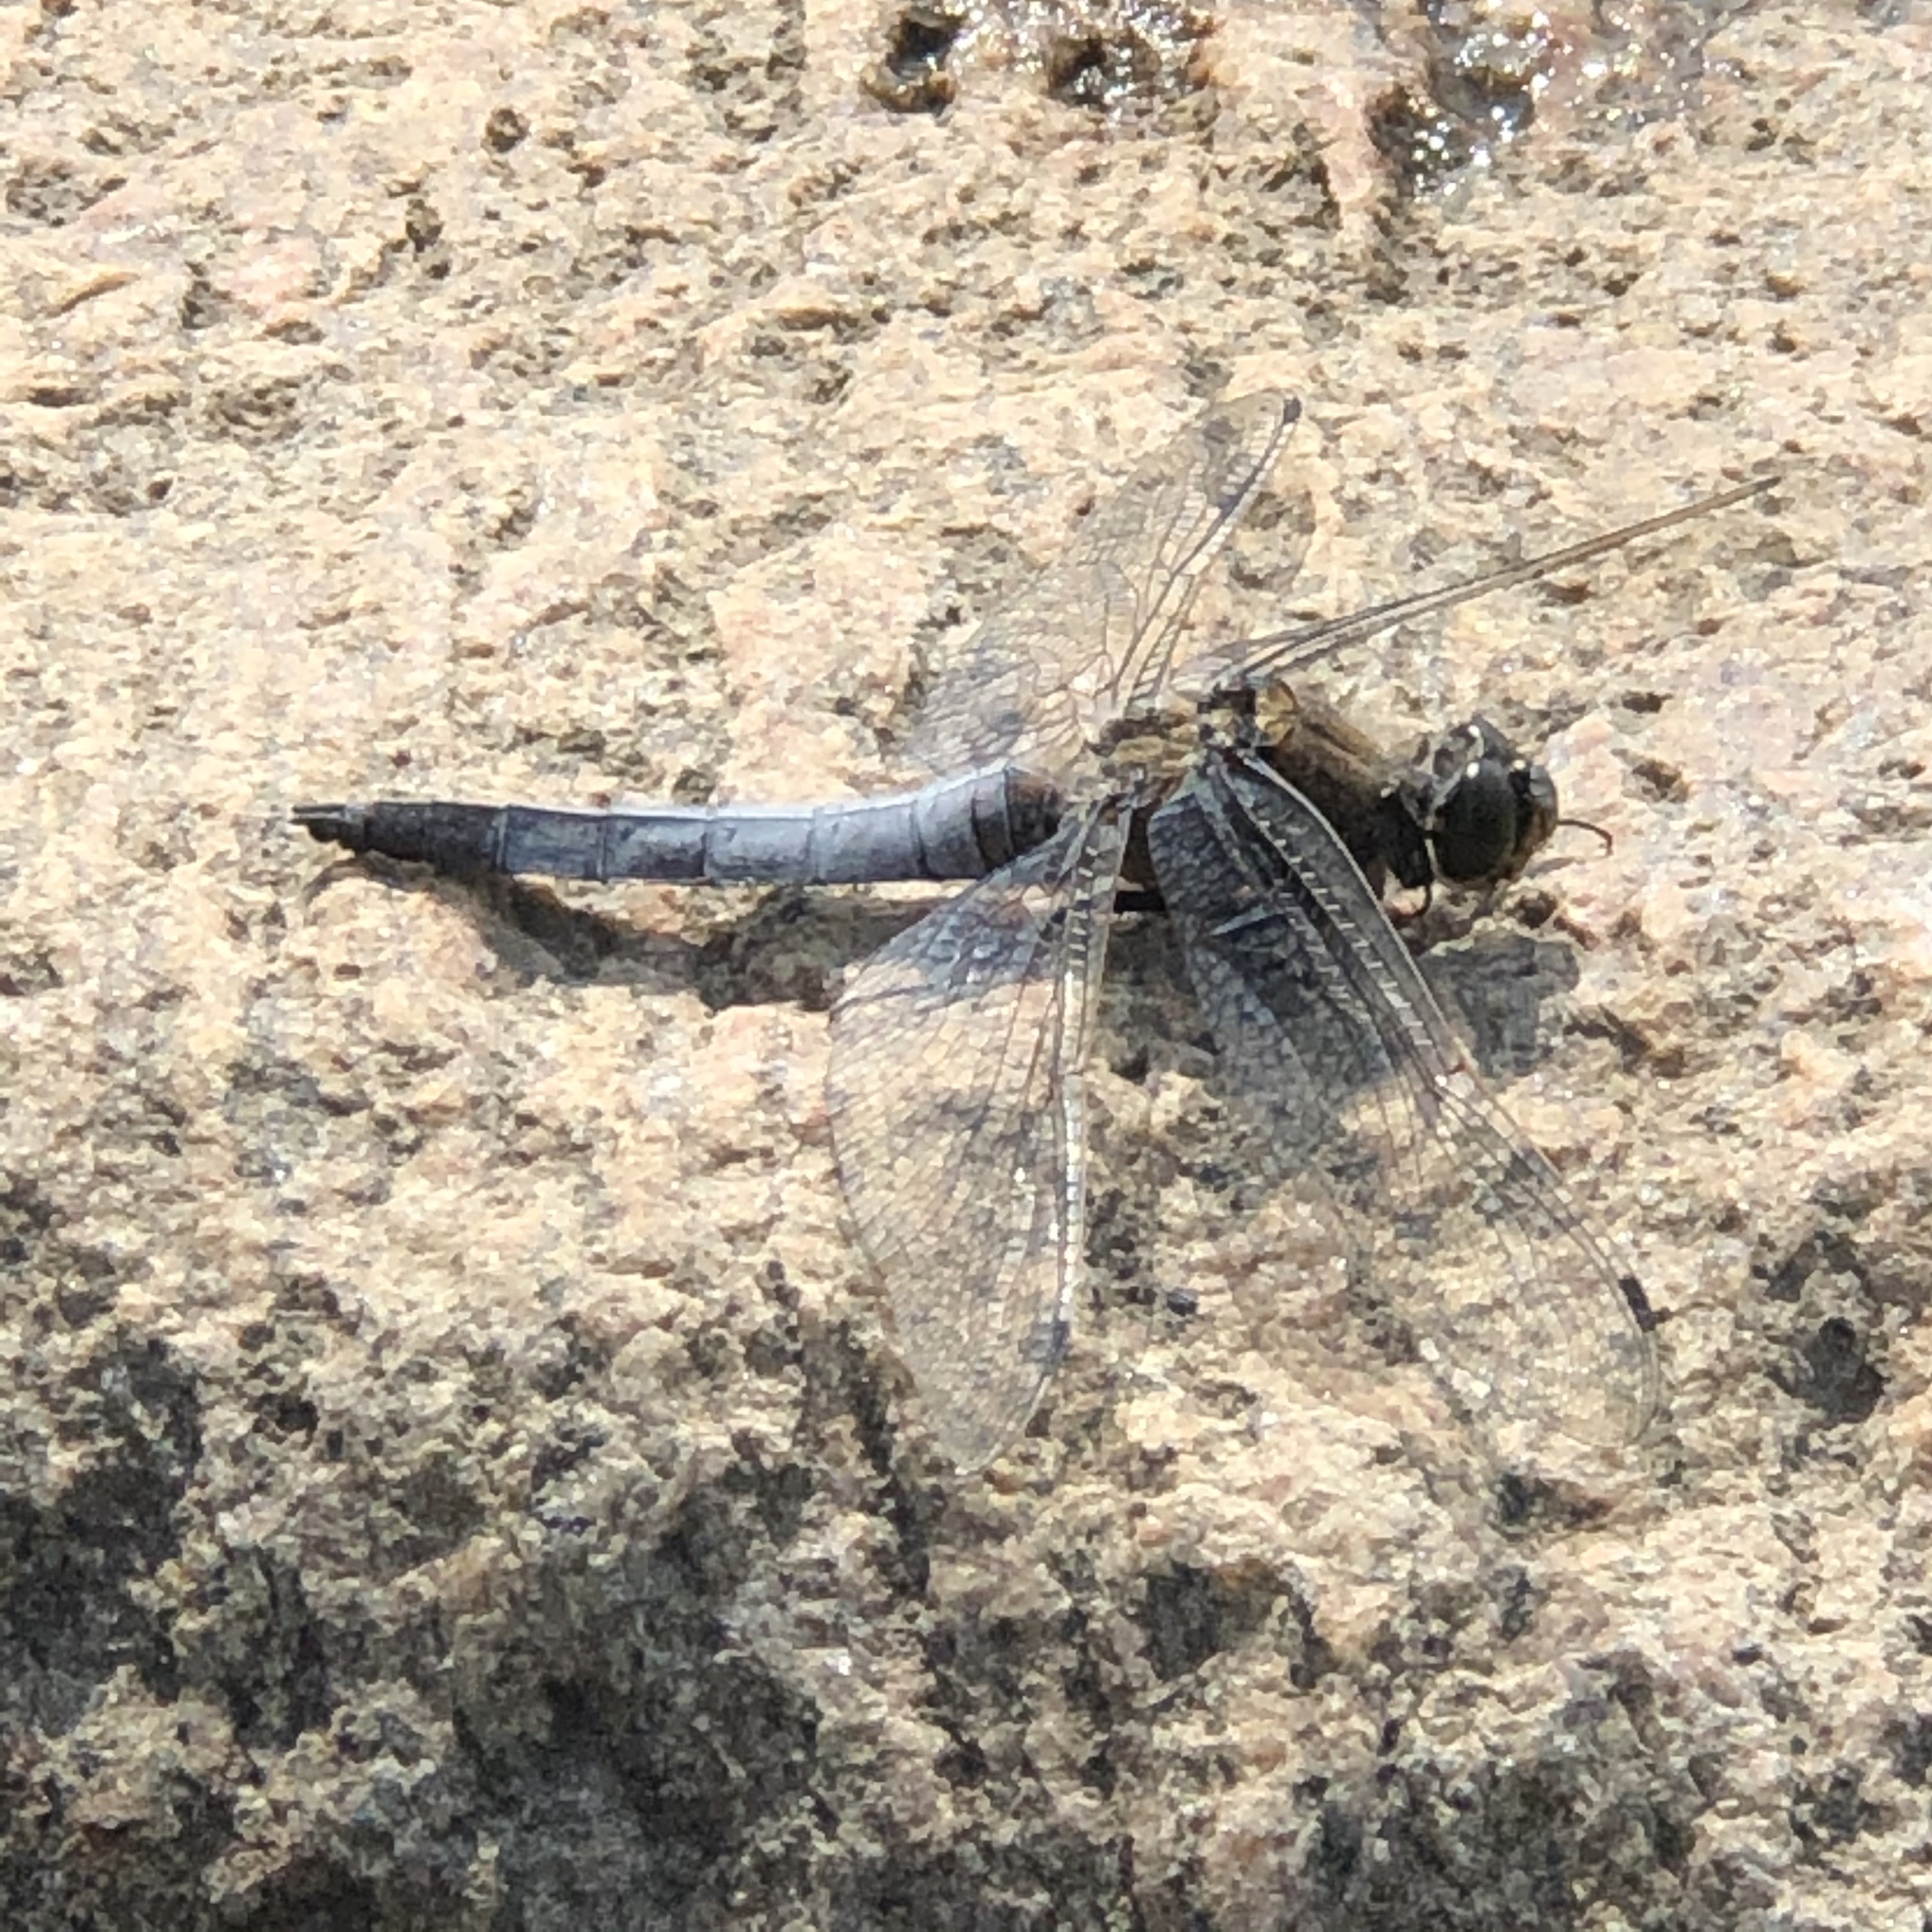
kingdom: Animalia
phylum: Arthropoda
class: Insecta
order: Odonata
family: Libellulidae
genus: Orthetrum
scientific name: Orthetrum cancellatum
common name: Black-tailed skimmer
